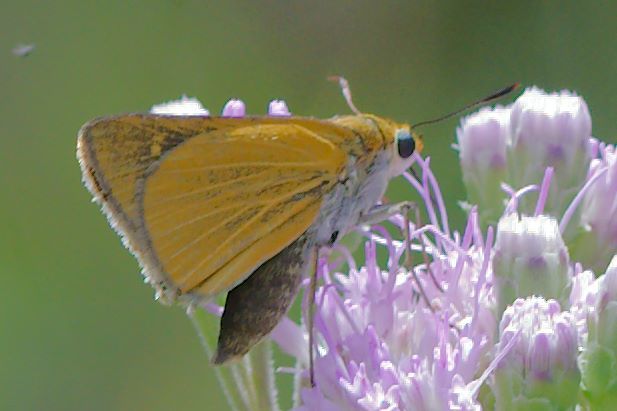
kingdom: Animalia
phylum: Arthropoda
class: Insecta
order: Lepidoptera
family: Hesperiidae
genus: Euphyes
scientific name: Euphyes arpa
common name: Palmetto skipper
